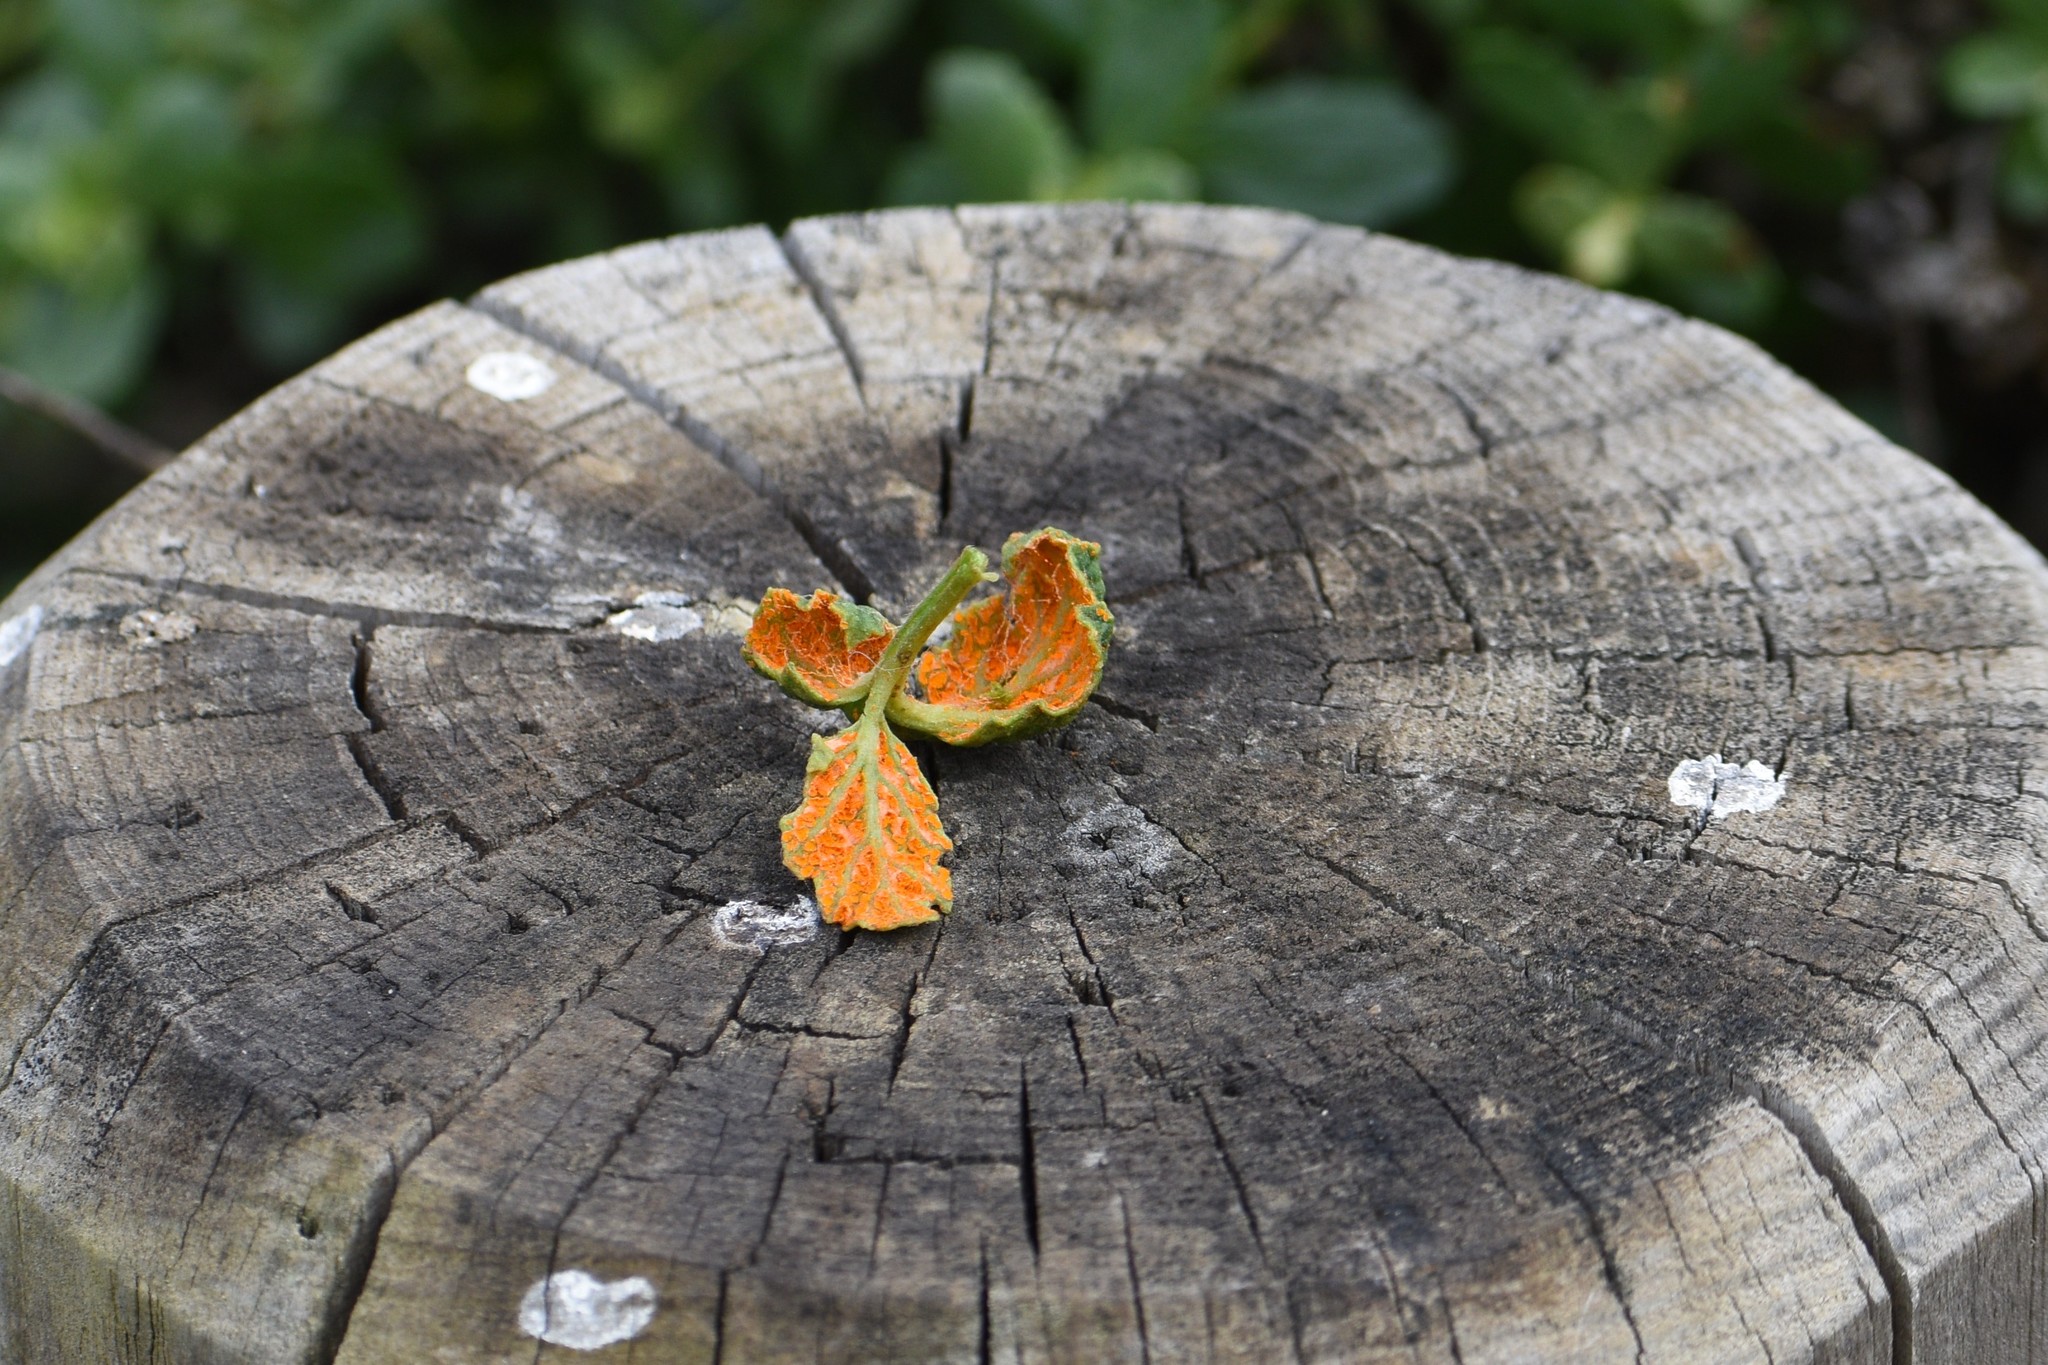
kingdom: Fungi
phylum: Basidiomycota
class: Pucciniomycetes
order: Pucciniales
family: Phragmidiaceae
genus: Gymnoconia
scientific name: Gymnoconia nitens
